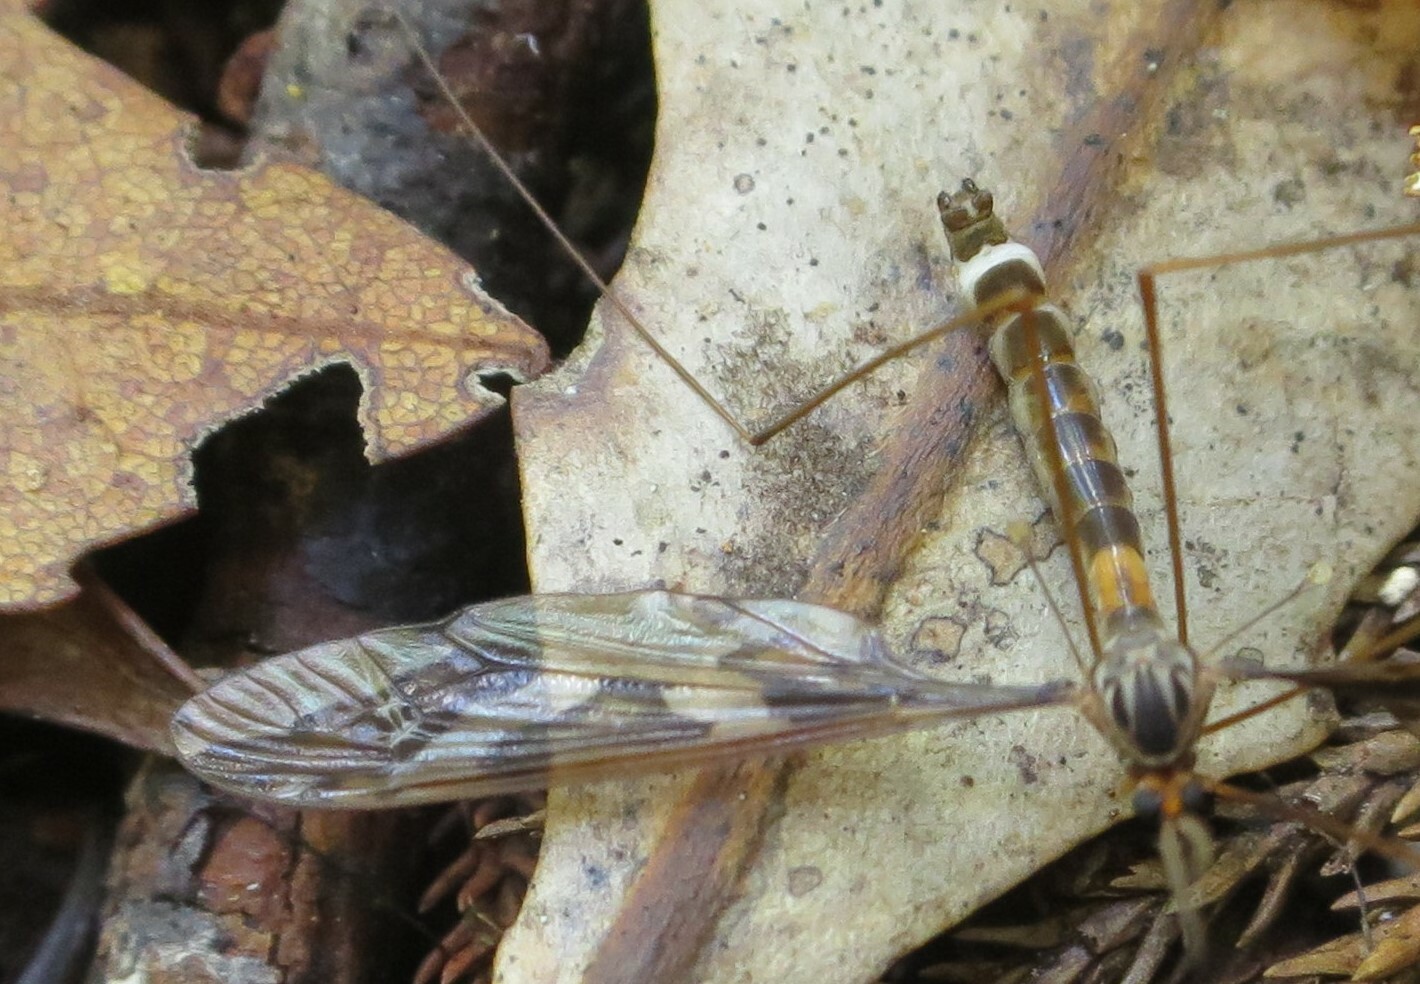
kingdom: Animalia
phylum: Arthropoda
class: Insecta
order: Diptera
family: Tipulidae
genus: Leptotarsus
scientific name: Leptotarsus binotatus
